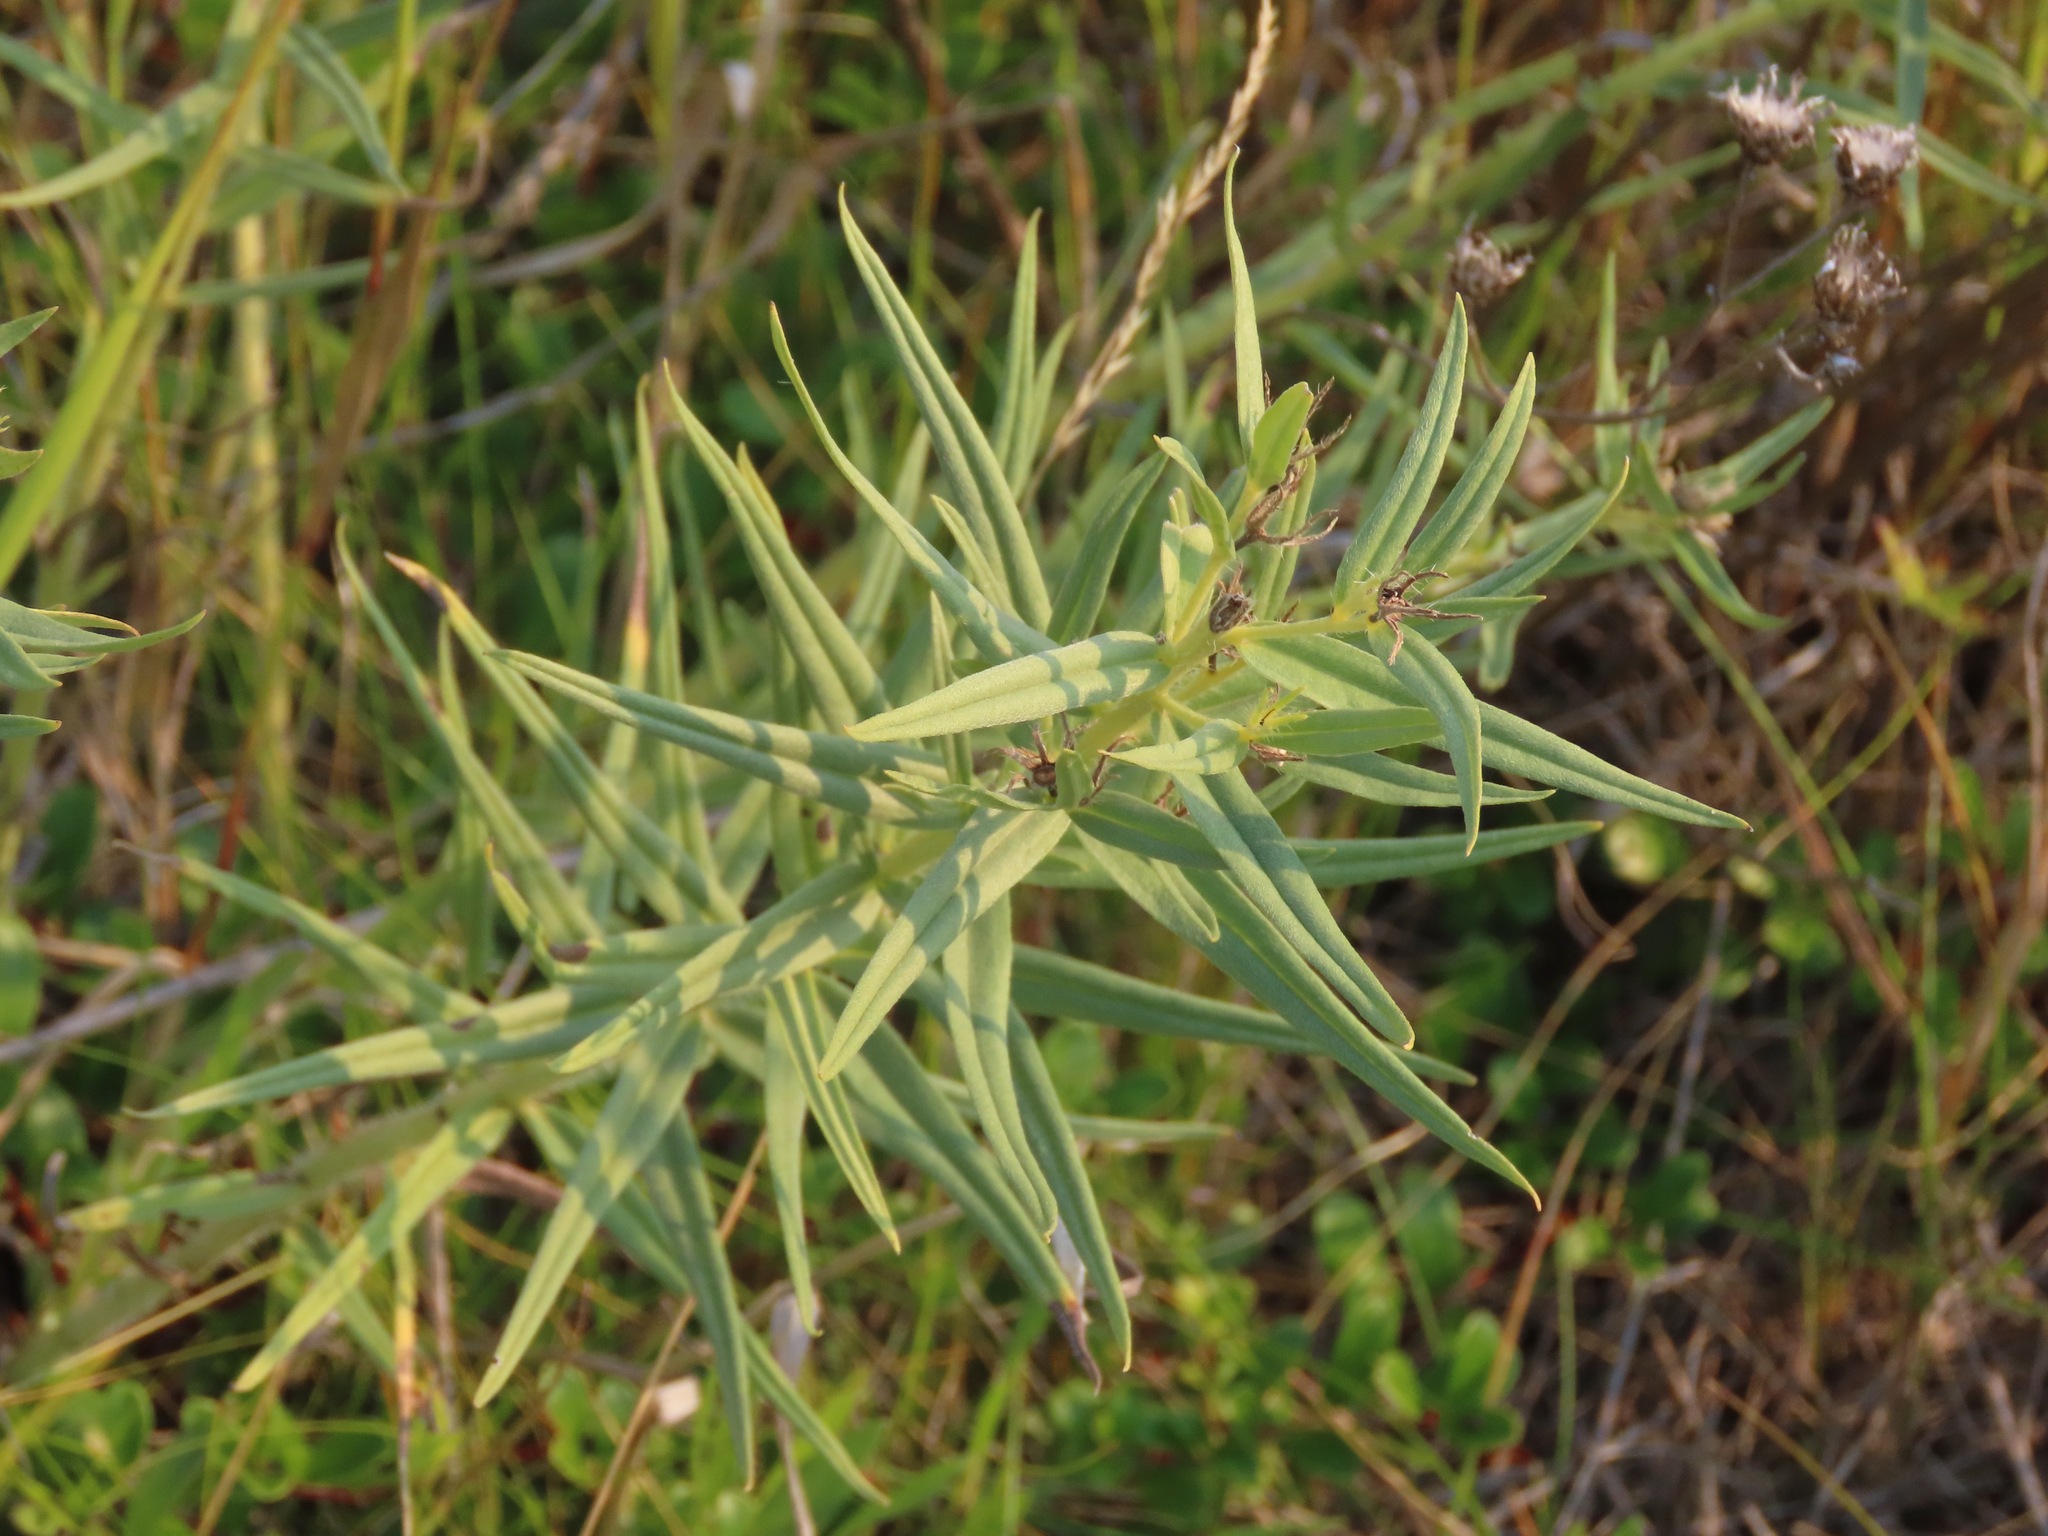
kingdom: Plantae
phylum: Tracheophyta
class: Magnoliopsida
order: Boraginales
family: Boraginaceae
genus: Lithospermum
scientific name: Lithospermum ruderale
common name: Western gromwell
